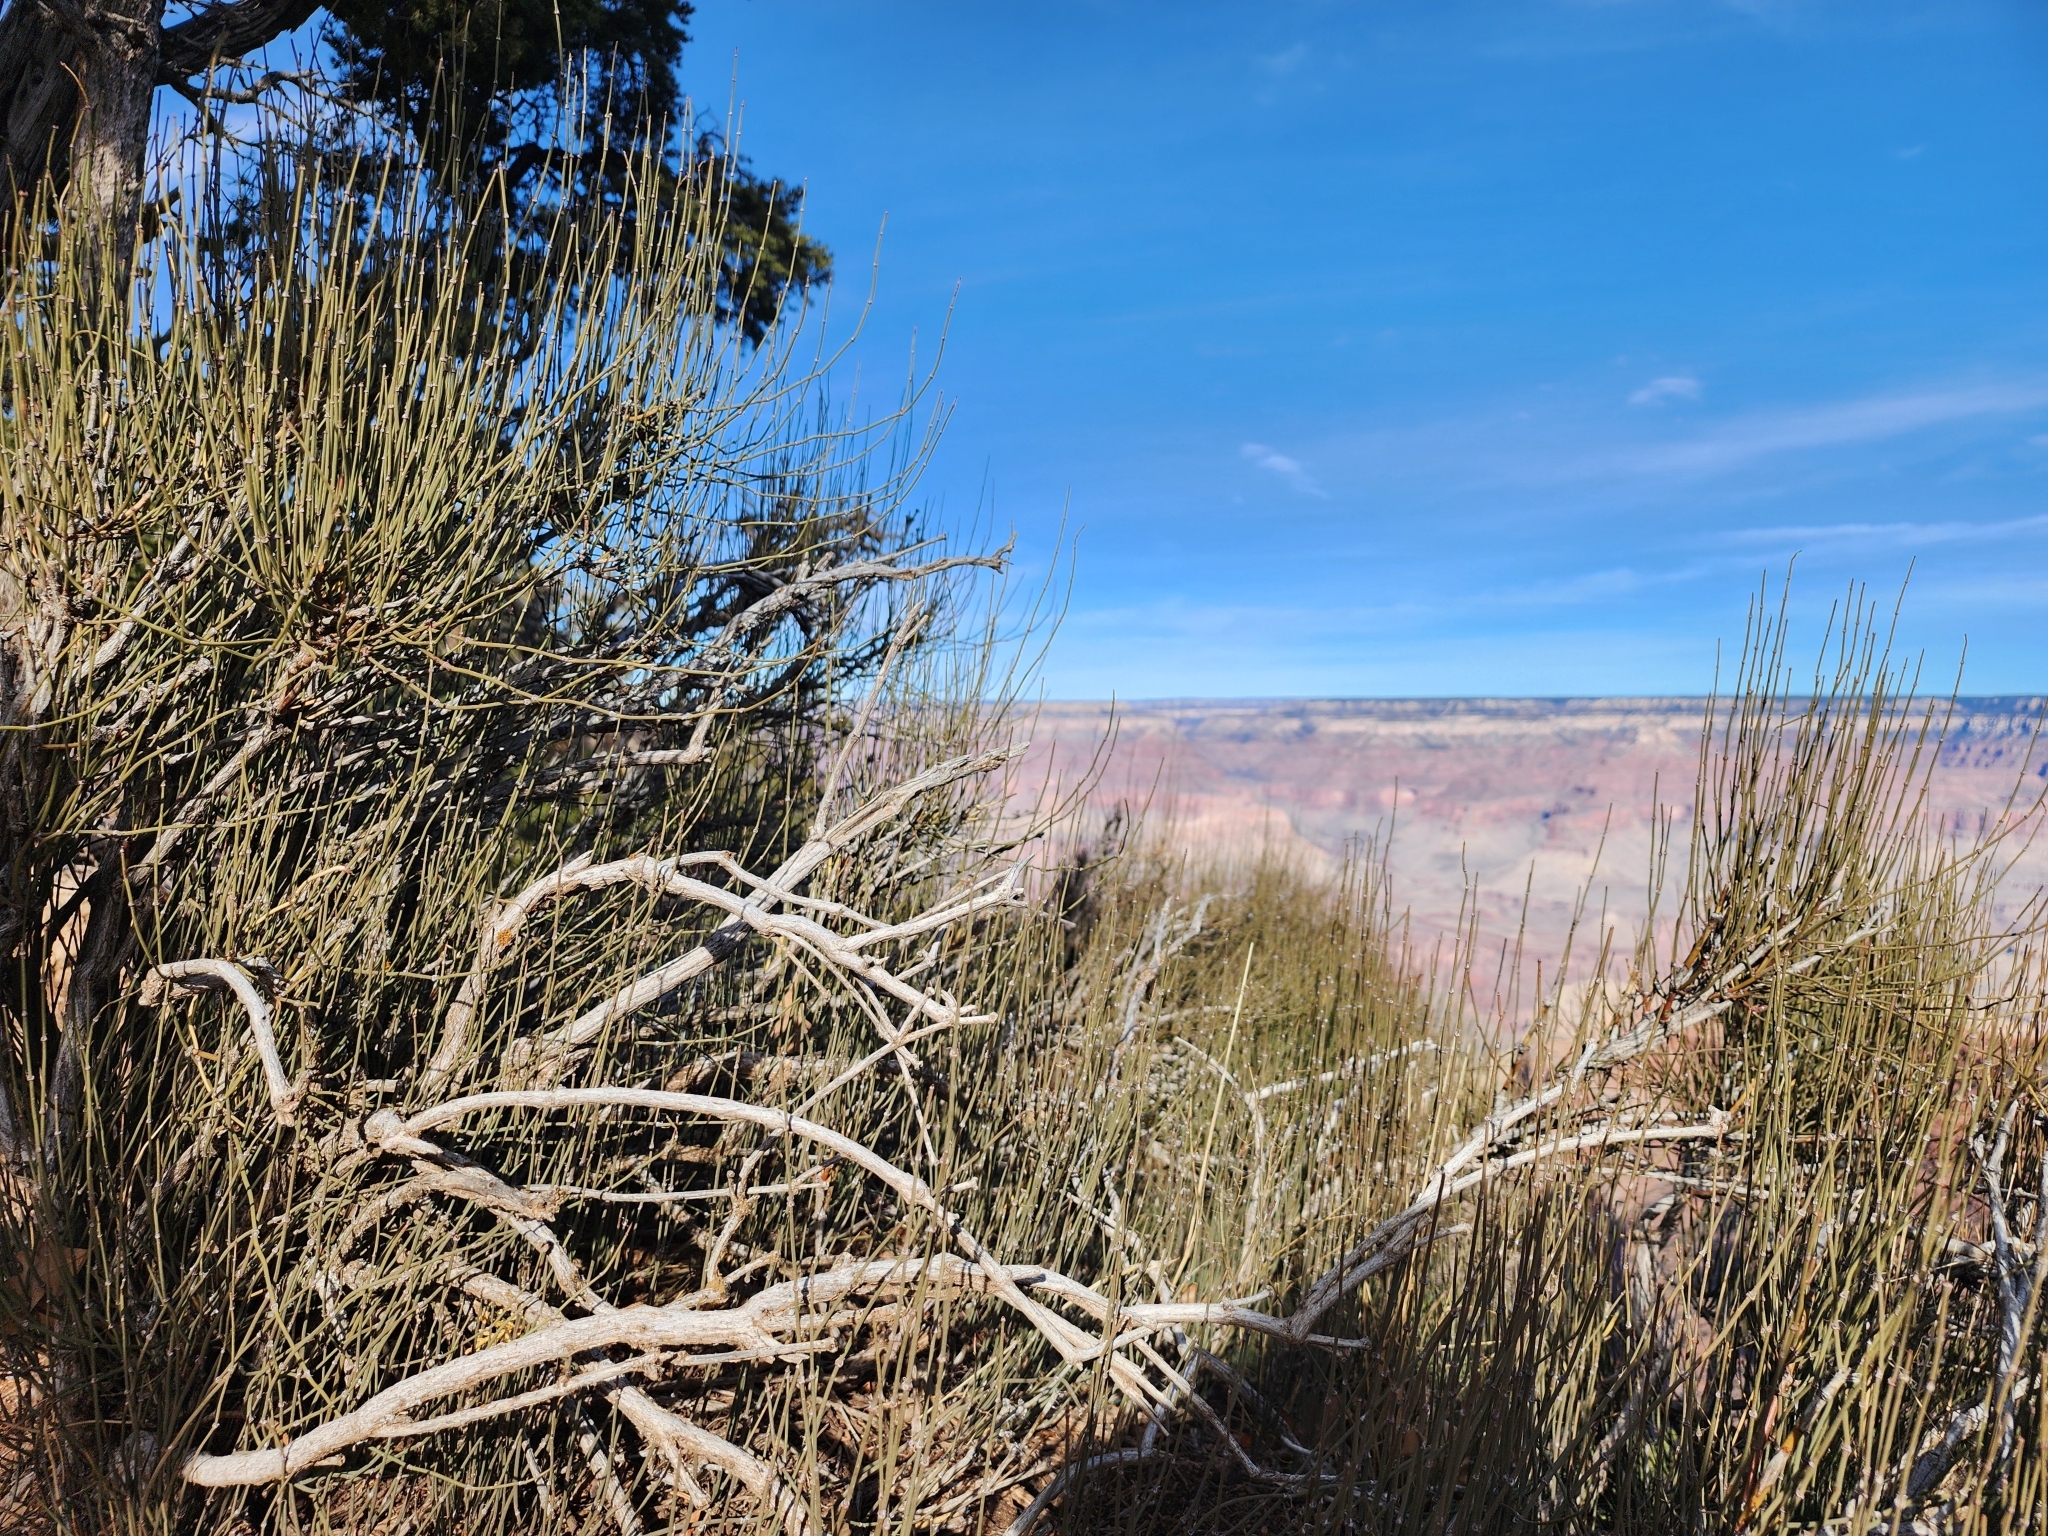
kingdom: Plantae
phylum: Tracheophyta
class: Gnetopsida
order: Ephedrales
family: Ephedraceae
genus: Ephedra
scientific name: Ephedra viridis
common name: Green ephedra
